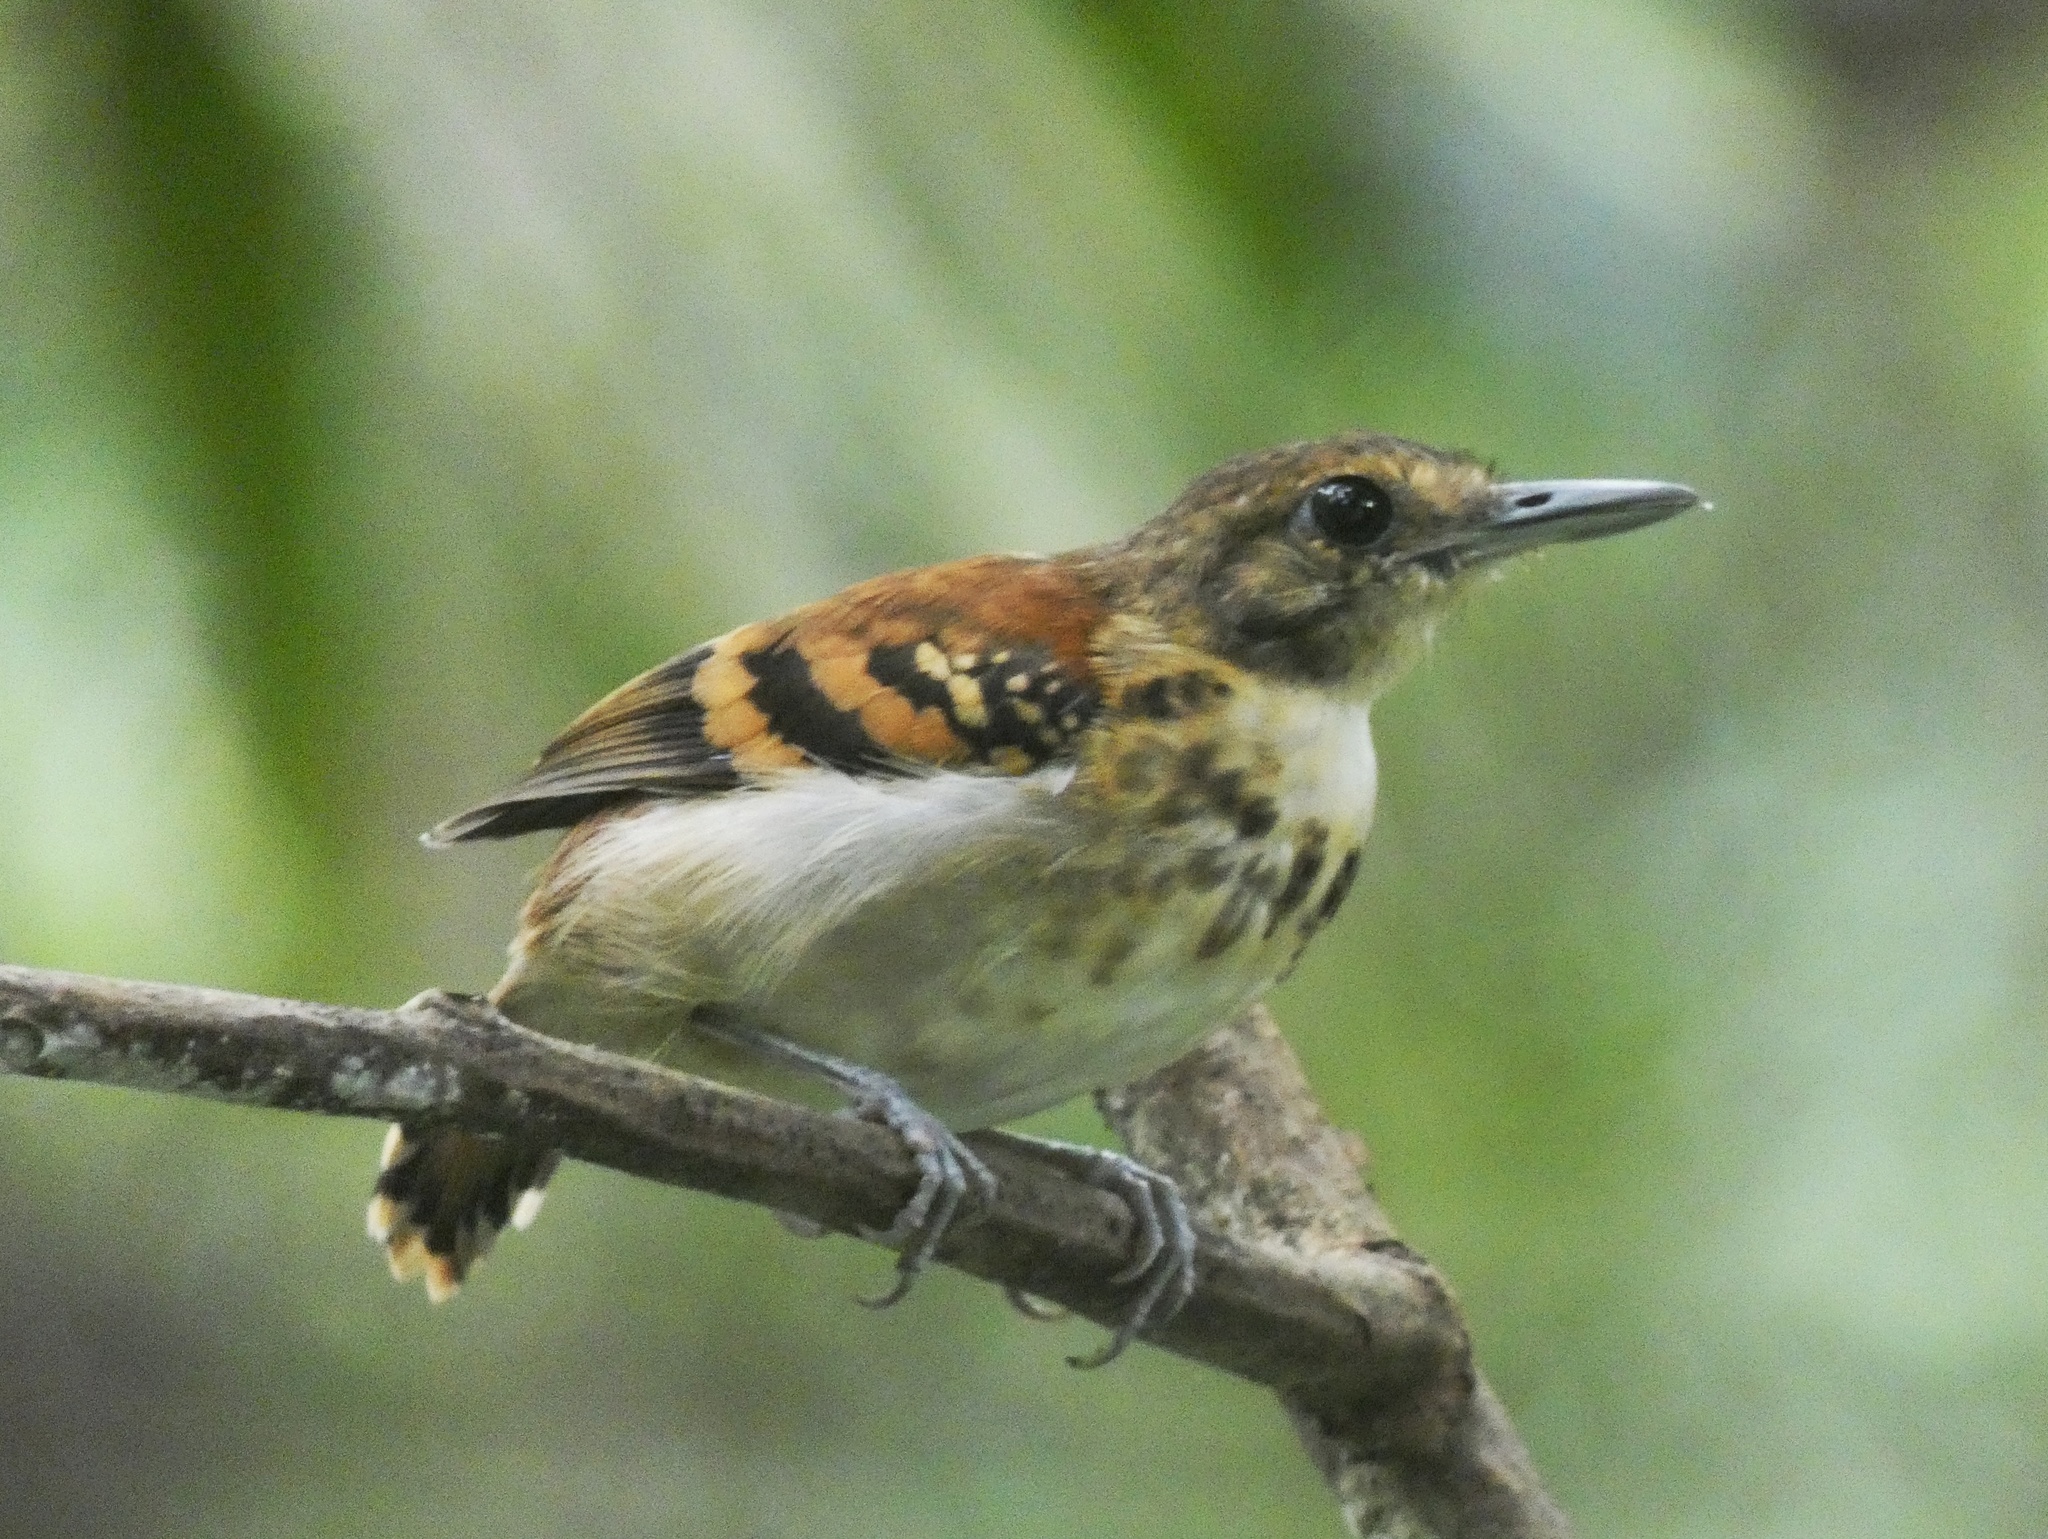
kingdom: Animalia
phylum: Chordata
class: Aves
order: Passeriformes
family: Thamnophilidae
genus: Hylophylax
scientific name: Hylophylax naevioides
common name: Spotted antbird
